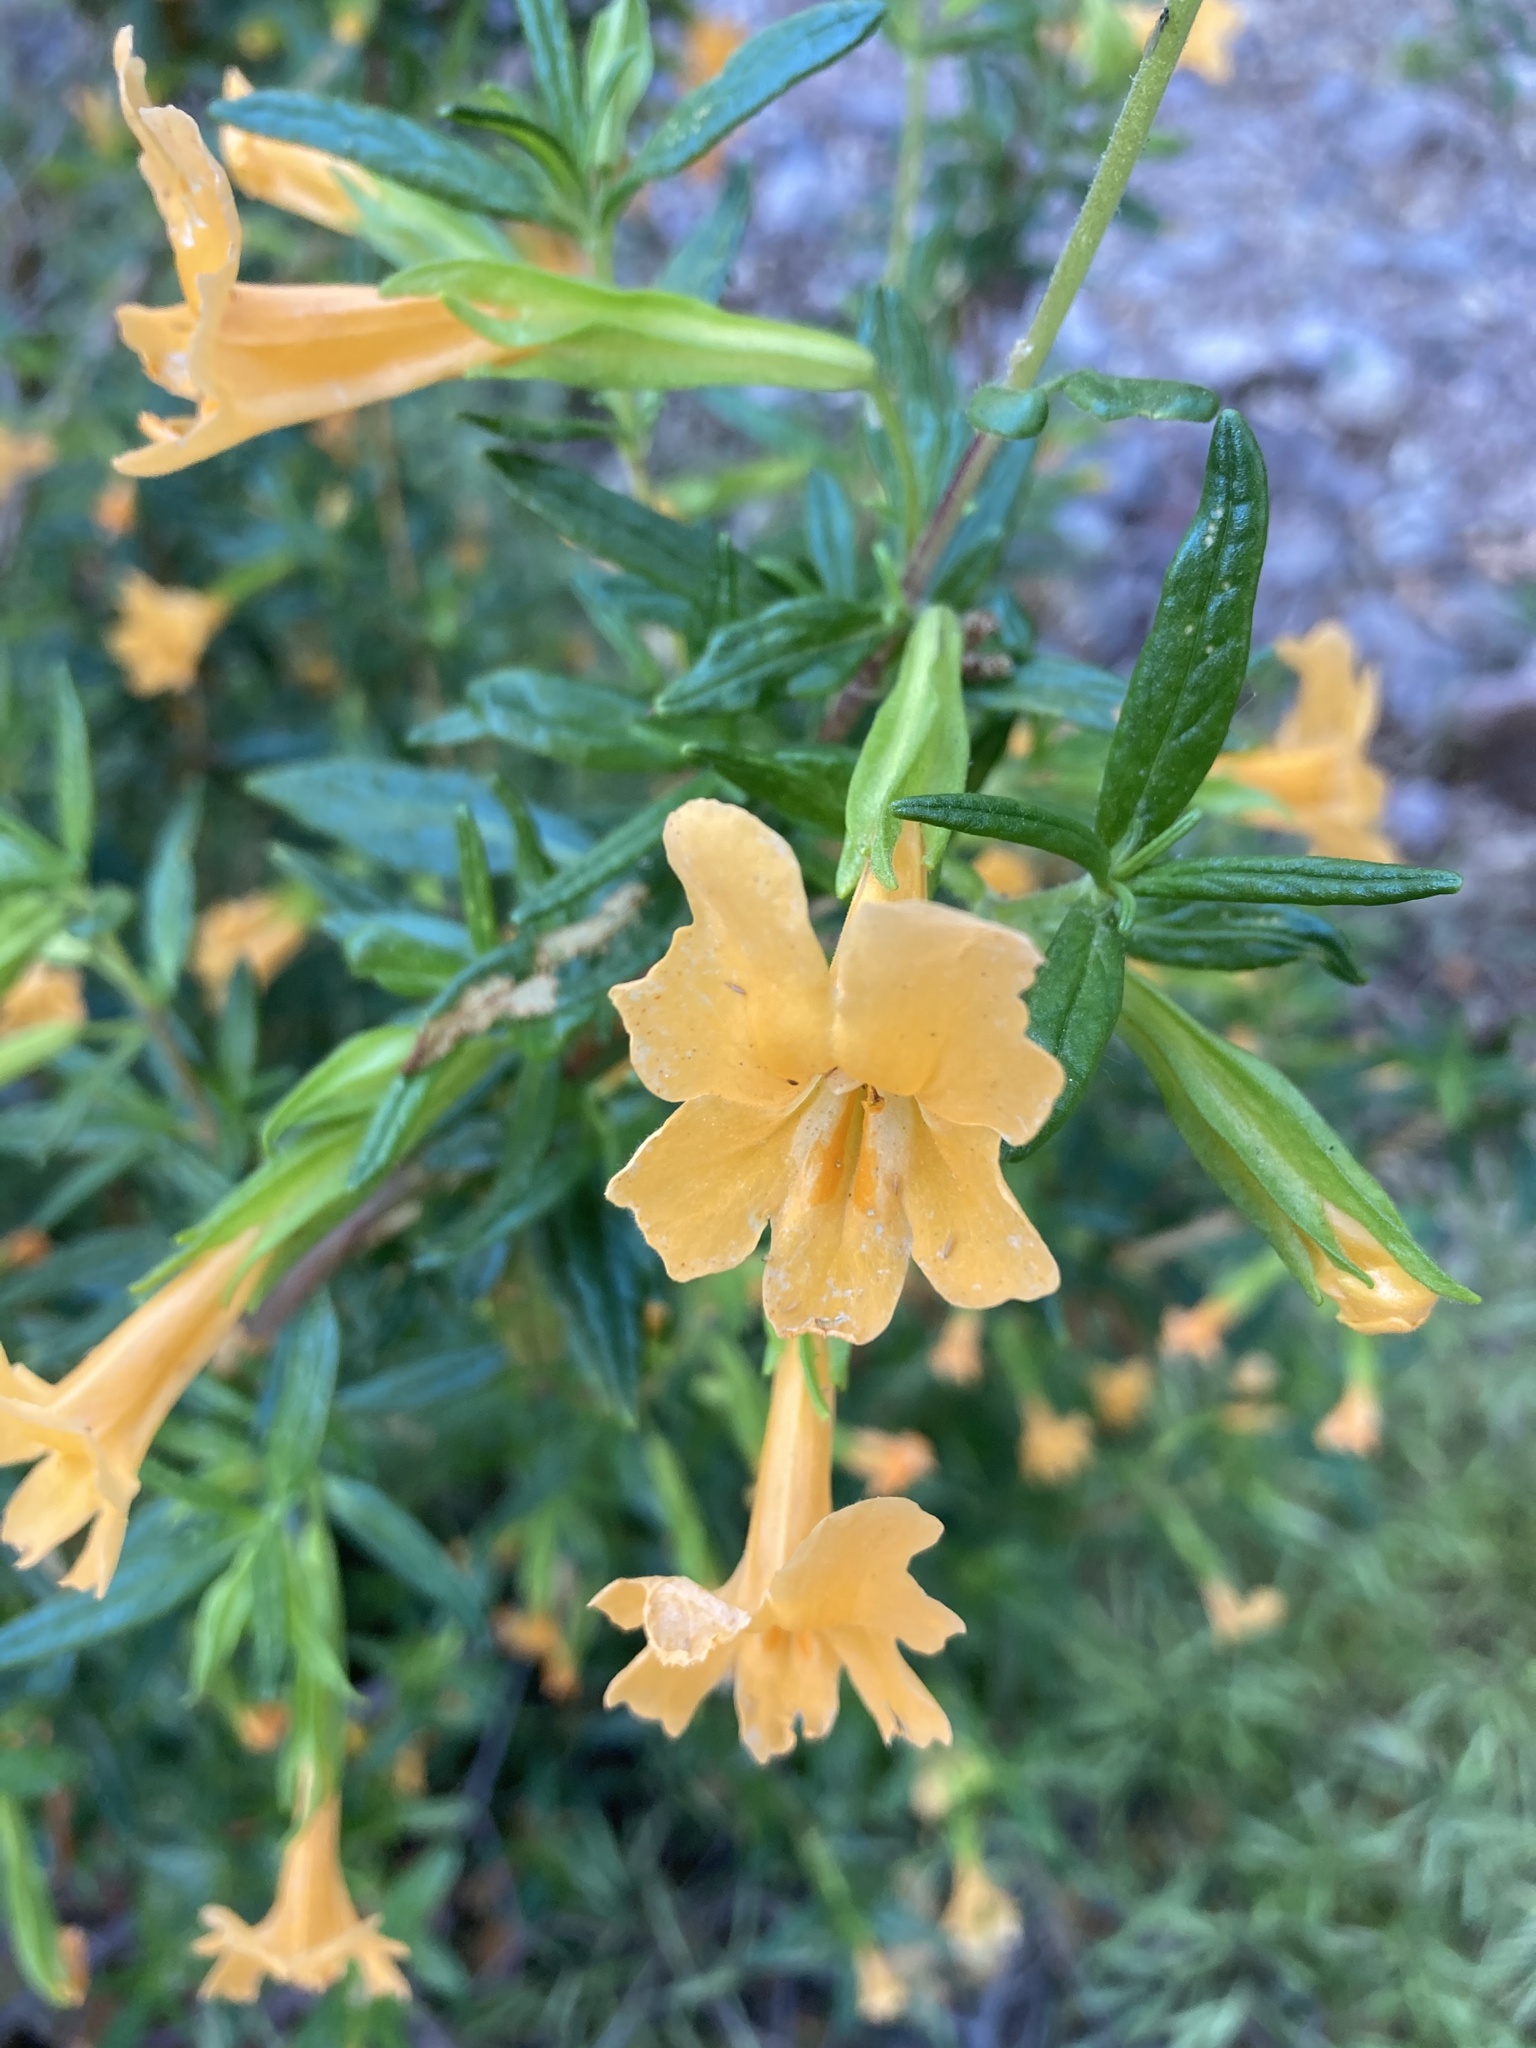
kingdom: Plantae
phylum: Tracheophyta
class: Magnoliopsida
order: Lamiales
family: Phrymaceae
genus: Diplacus
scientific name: Diplacus aurantiacus
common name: Bush monkey-flower
